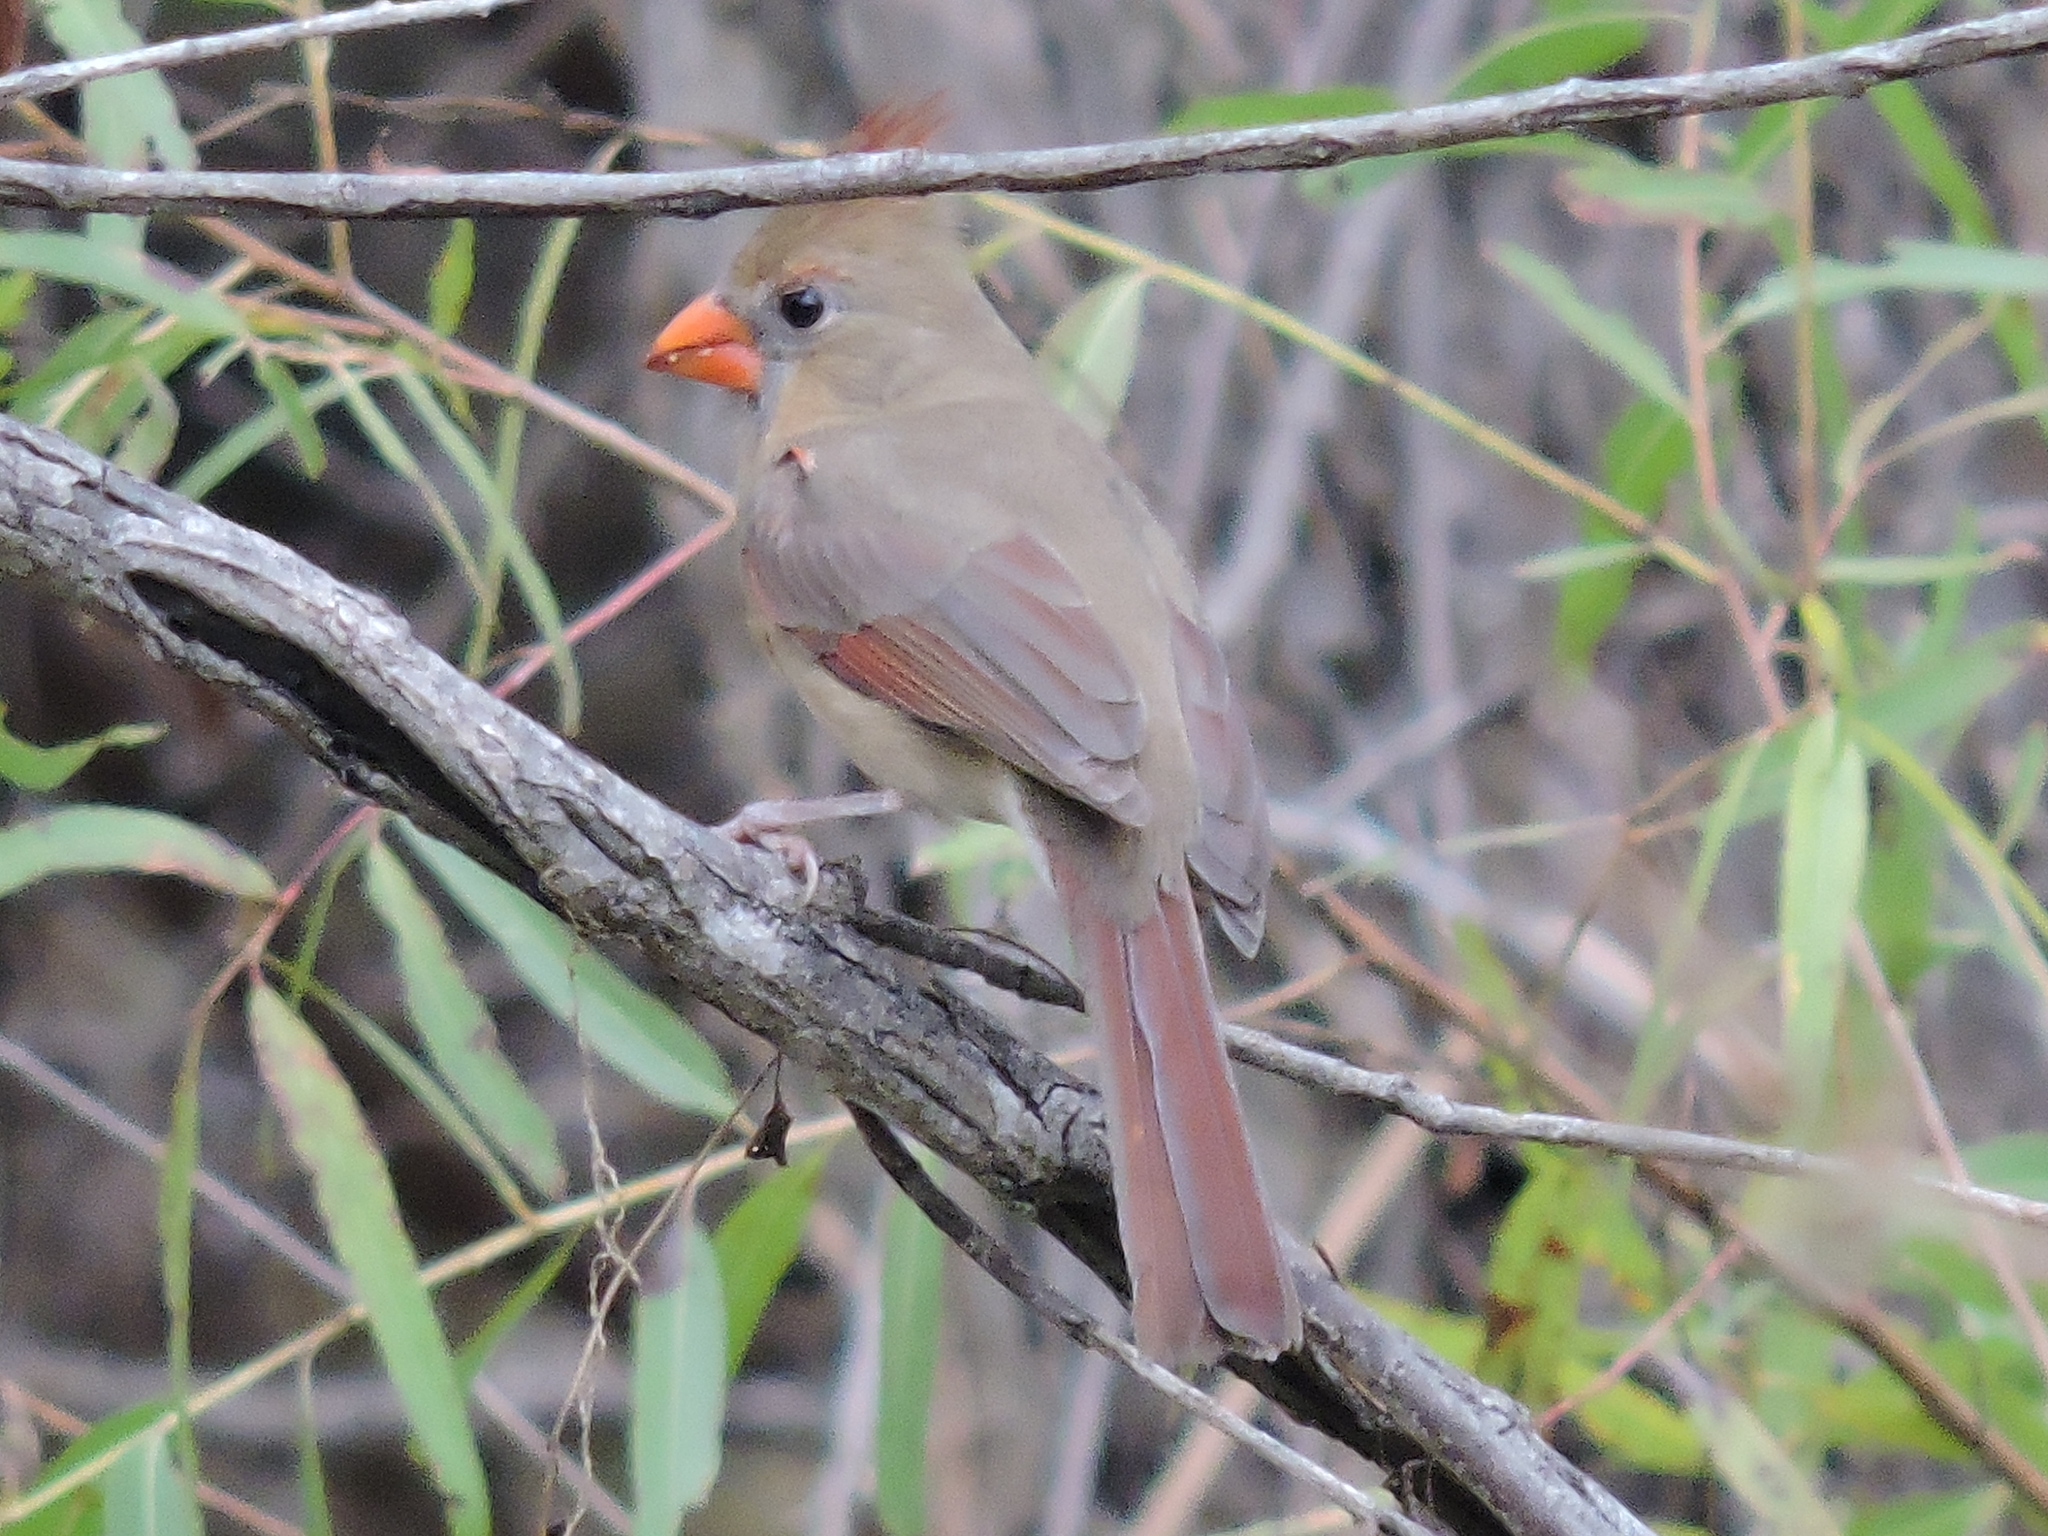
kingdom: Animalia
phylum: Chordata
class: Aves
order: Passeriformes
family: Cardinalidae
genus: Cardinalis
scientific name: Cardinalis cardinalis
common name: Northern cardinal
